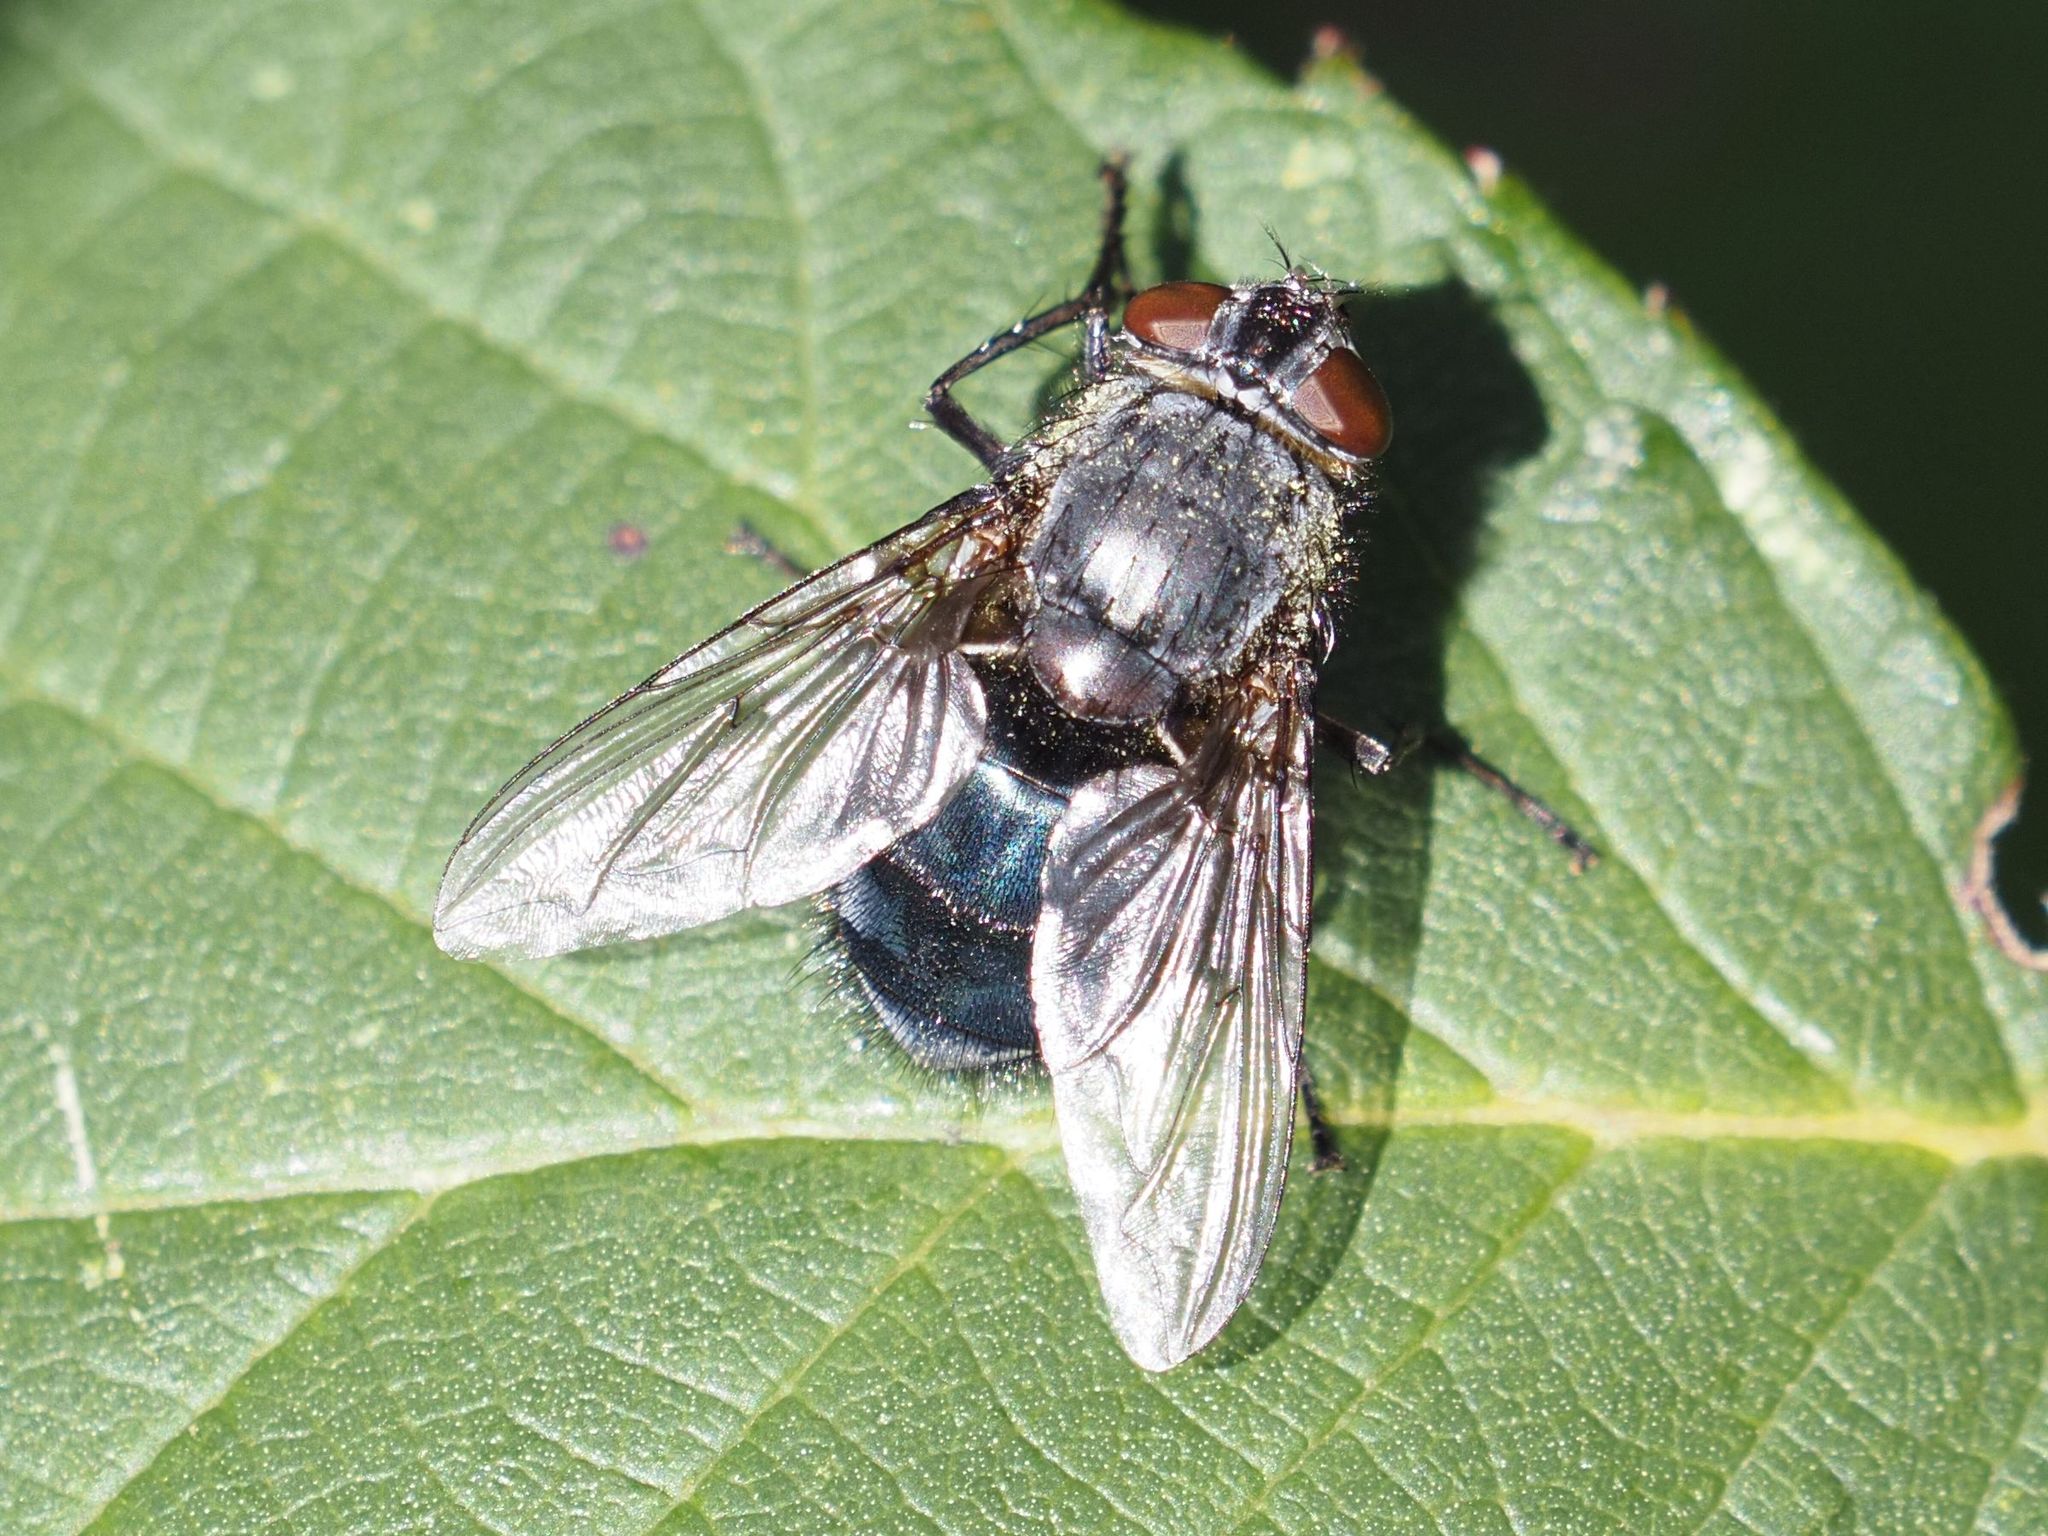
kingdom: Animalia
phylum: Arthropoda
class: Insecta
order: Diptera
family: Calliphoridae
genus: Calliphora
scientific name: Calliphora vomitoria
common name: Blue bottle fly
